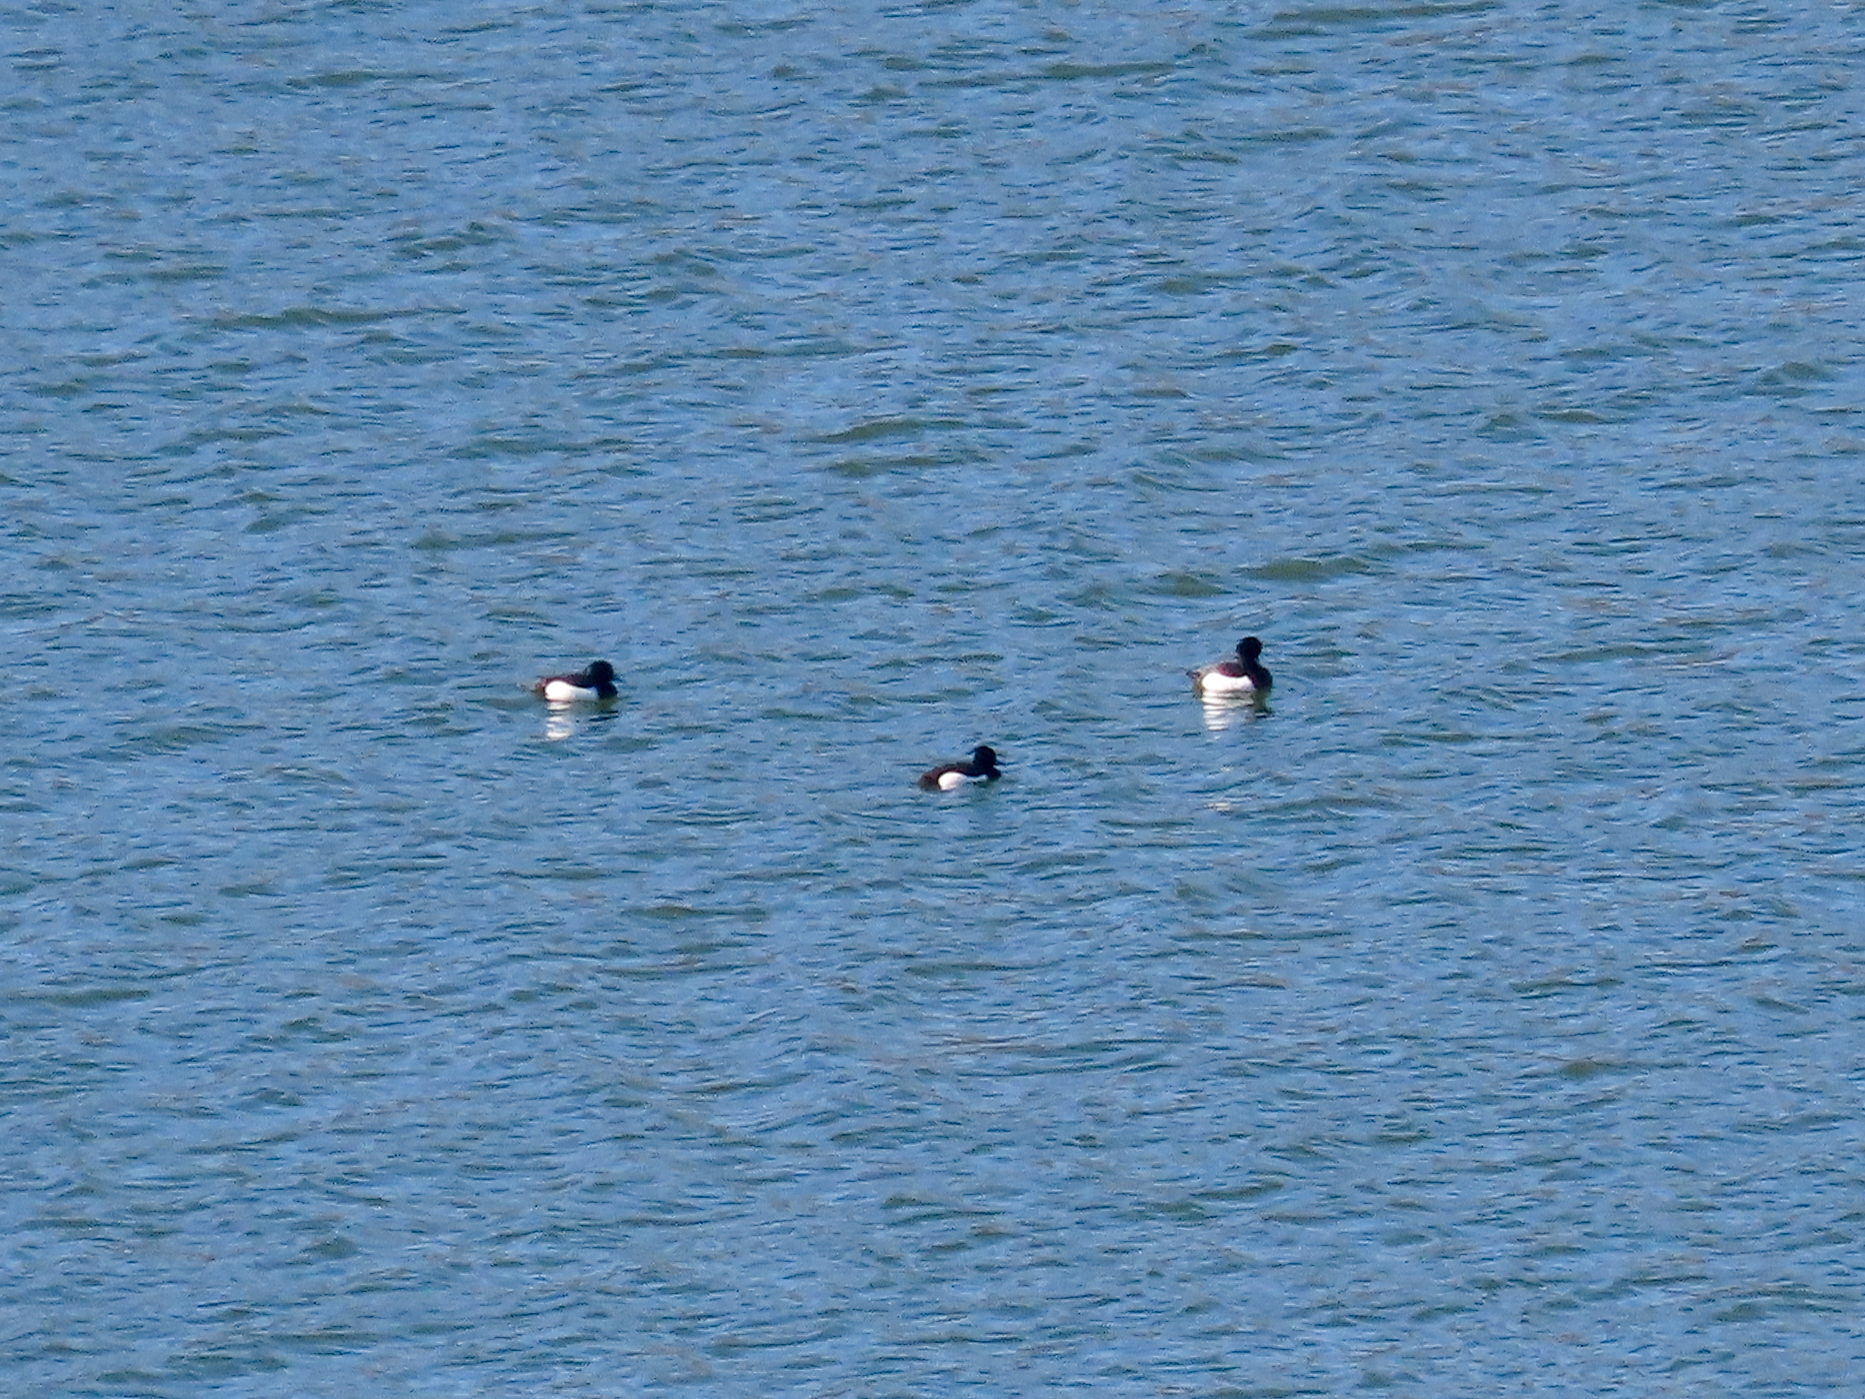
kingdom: Animalia
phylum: Chordata
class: Aves
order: Anseriformes
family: Anatidae
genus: Aythya
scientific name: Aythya fuligula
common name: Tufted duck
